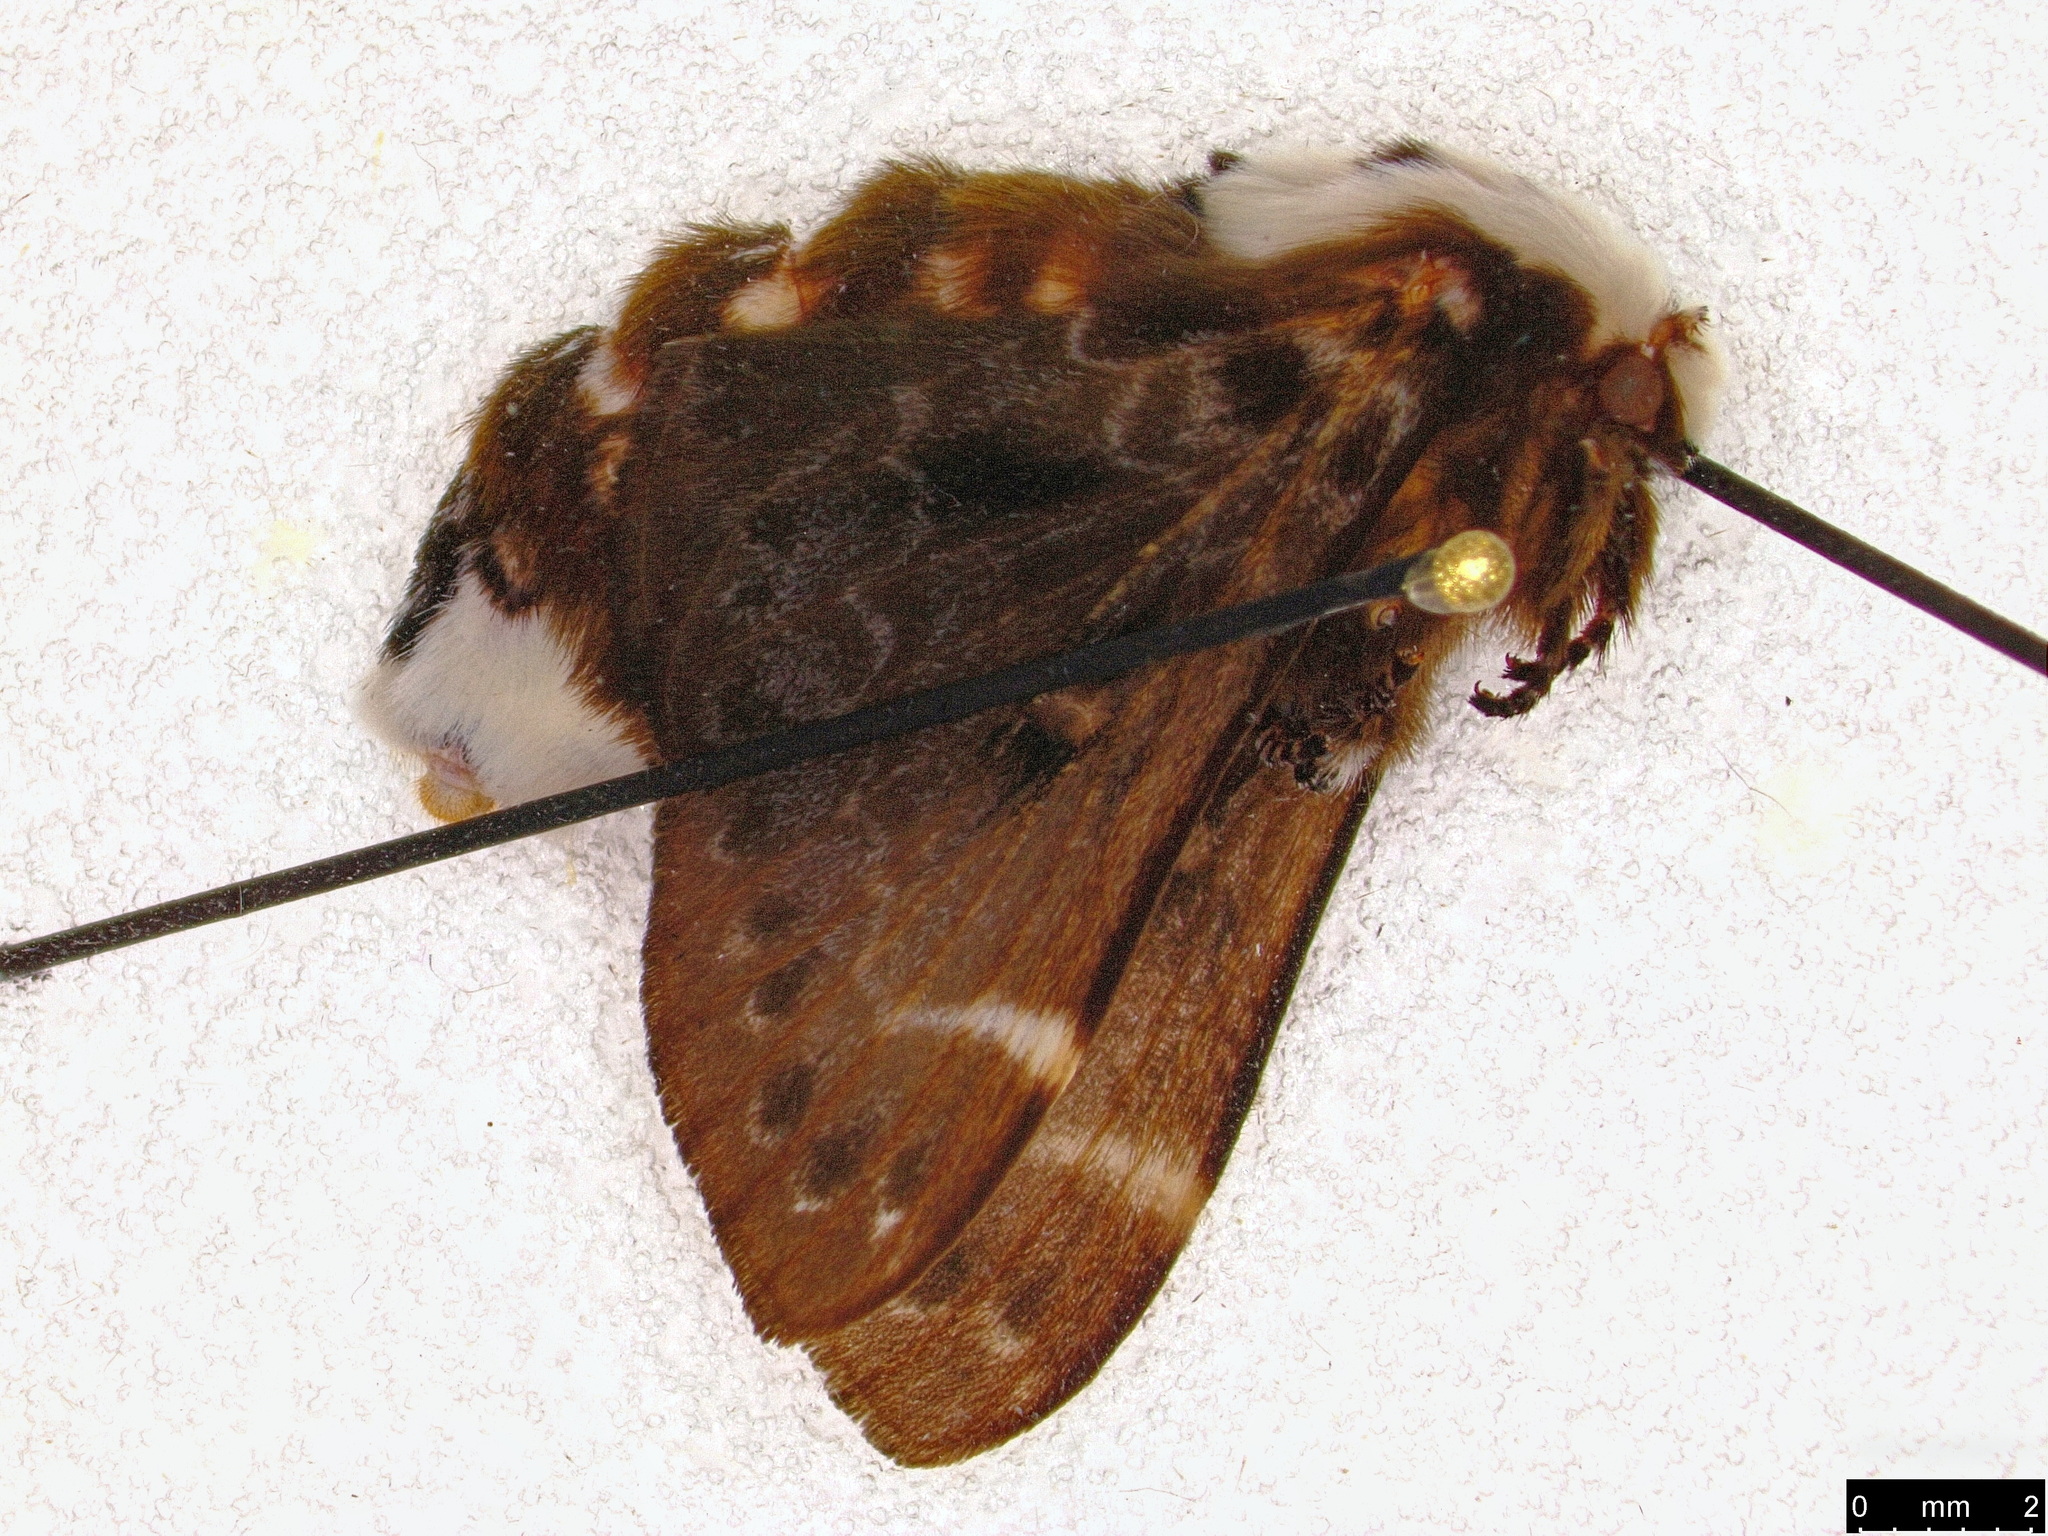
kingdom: Animalia
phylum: Arthropoda
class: Insecta
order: Lepidoptera
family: Lasiocampidae
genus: Genduara
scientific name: Genduara punctigera
